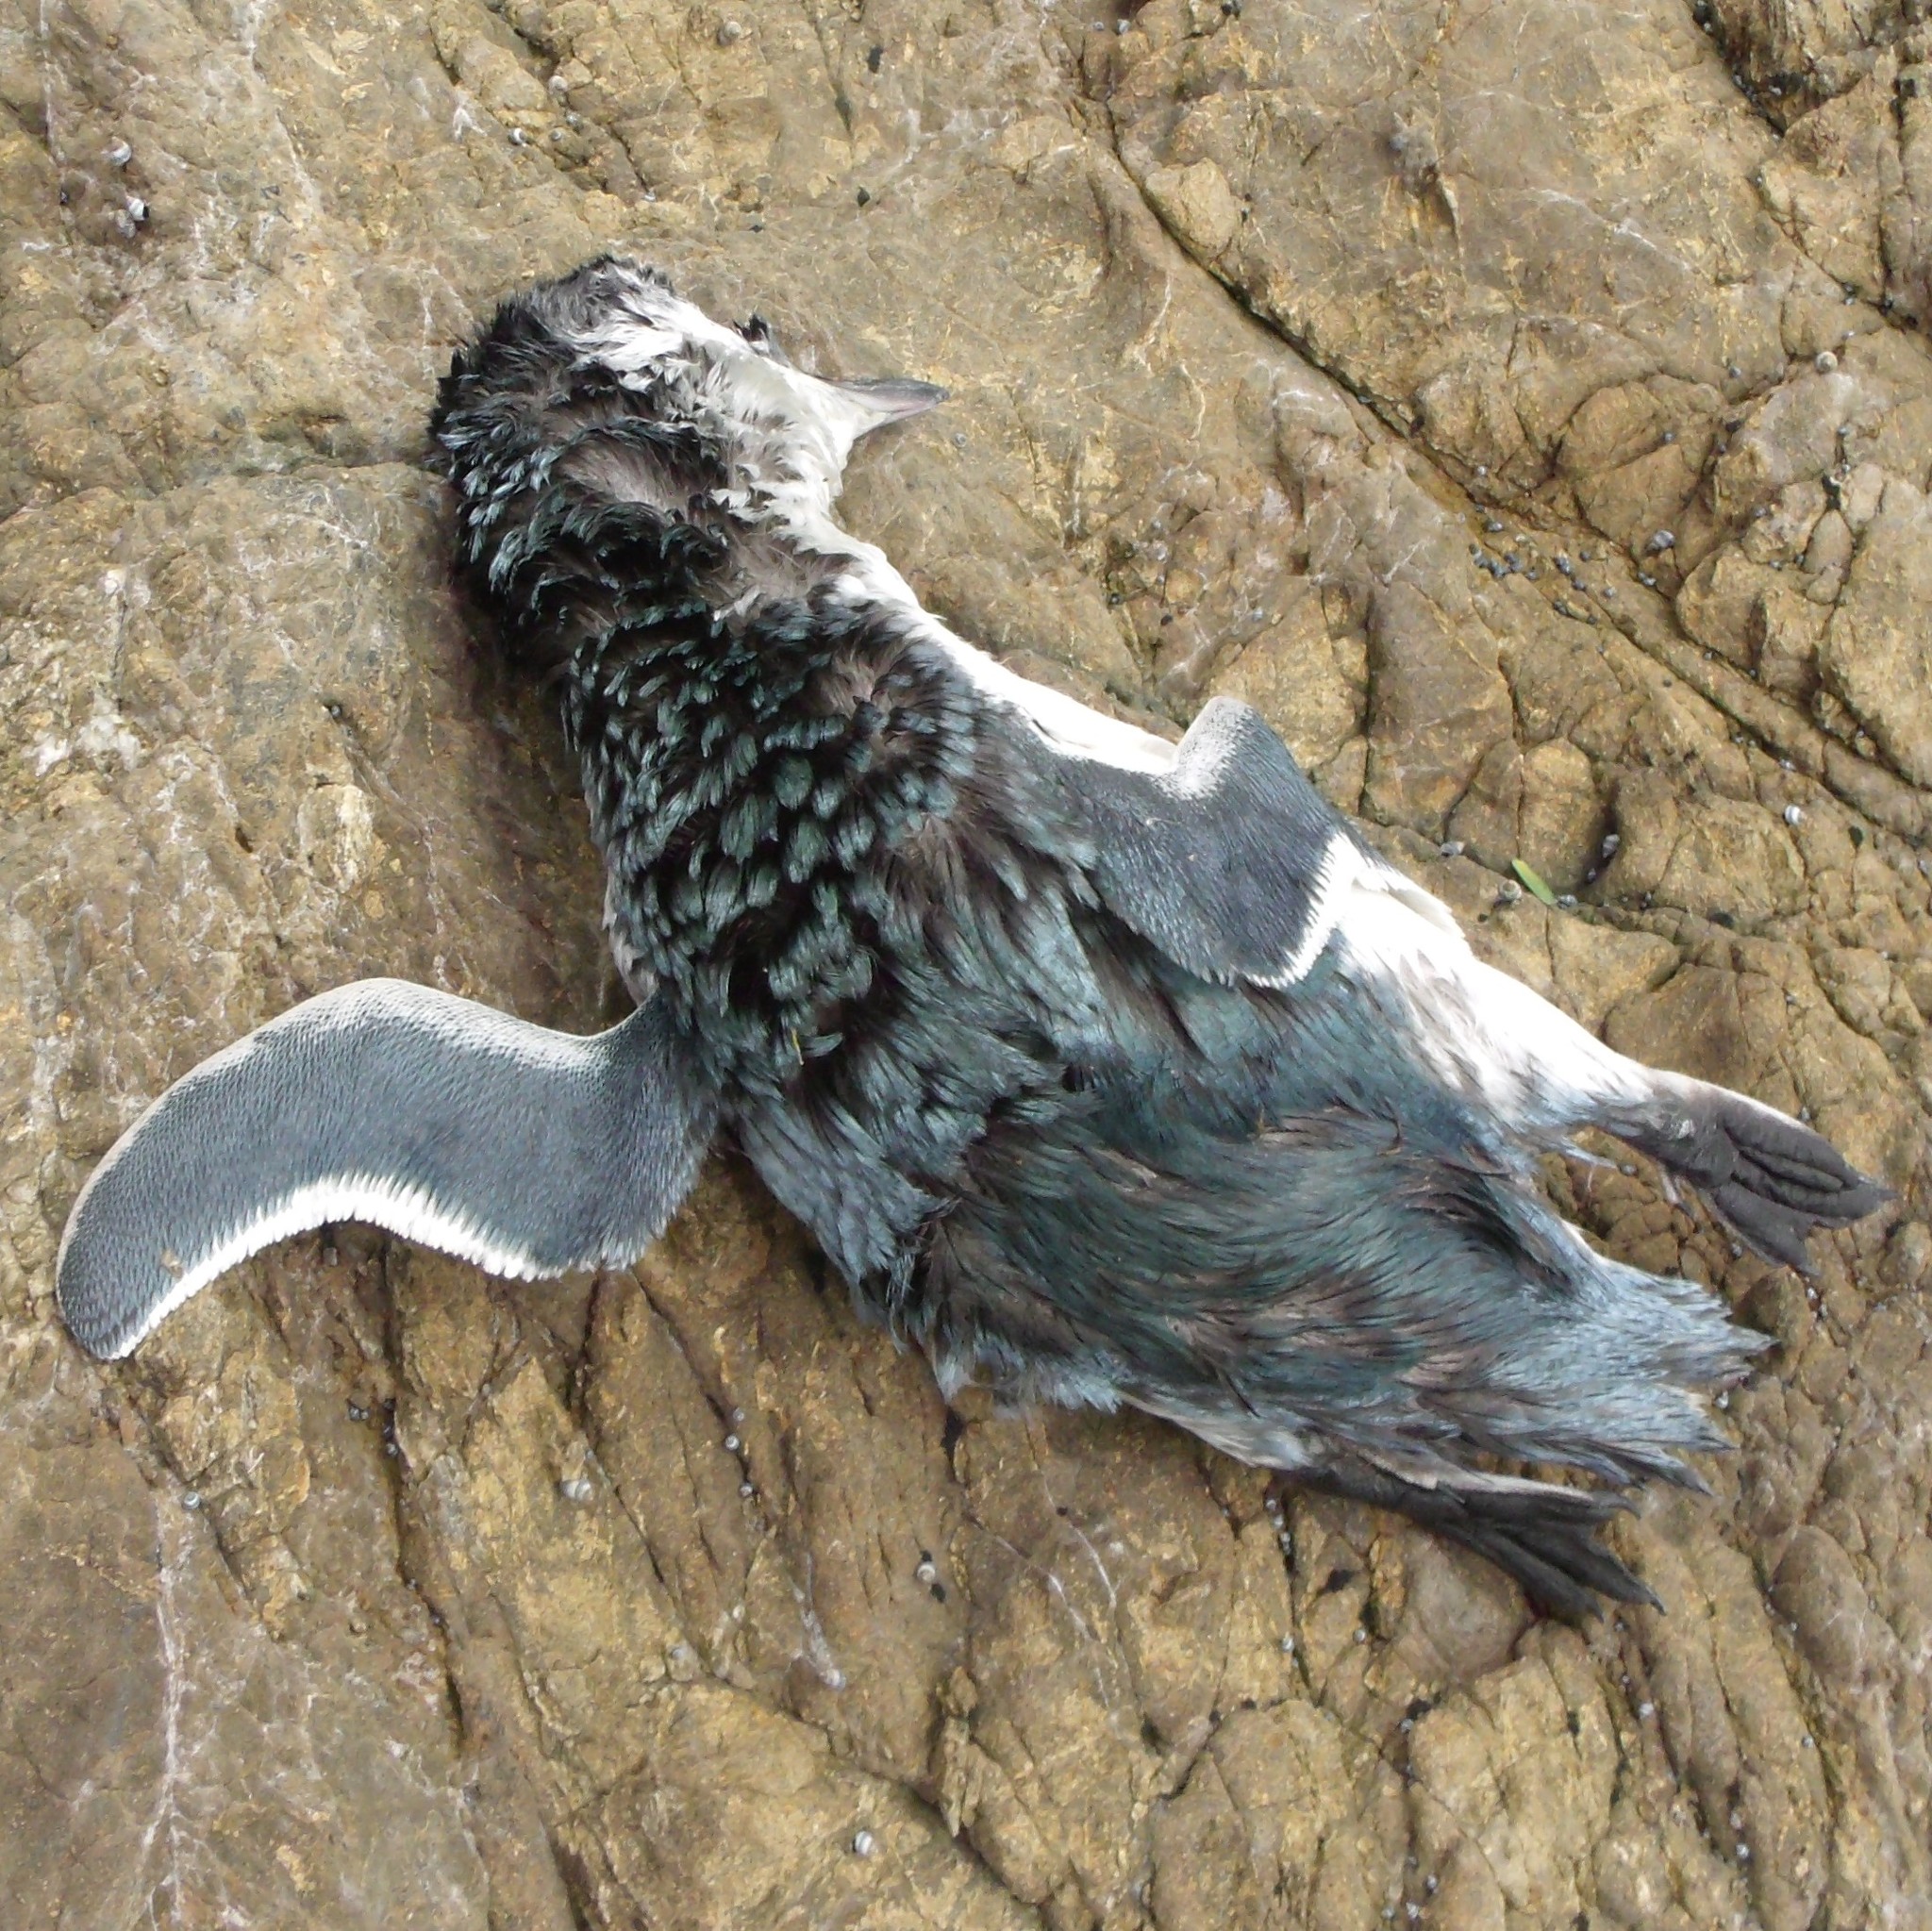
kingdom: Animalia
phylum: Chordata
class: Aves
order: Sphenisciformes
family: Spheniscidae
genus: Eudyptula
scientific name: Eudyptula minor
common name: Little penguin
